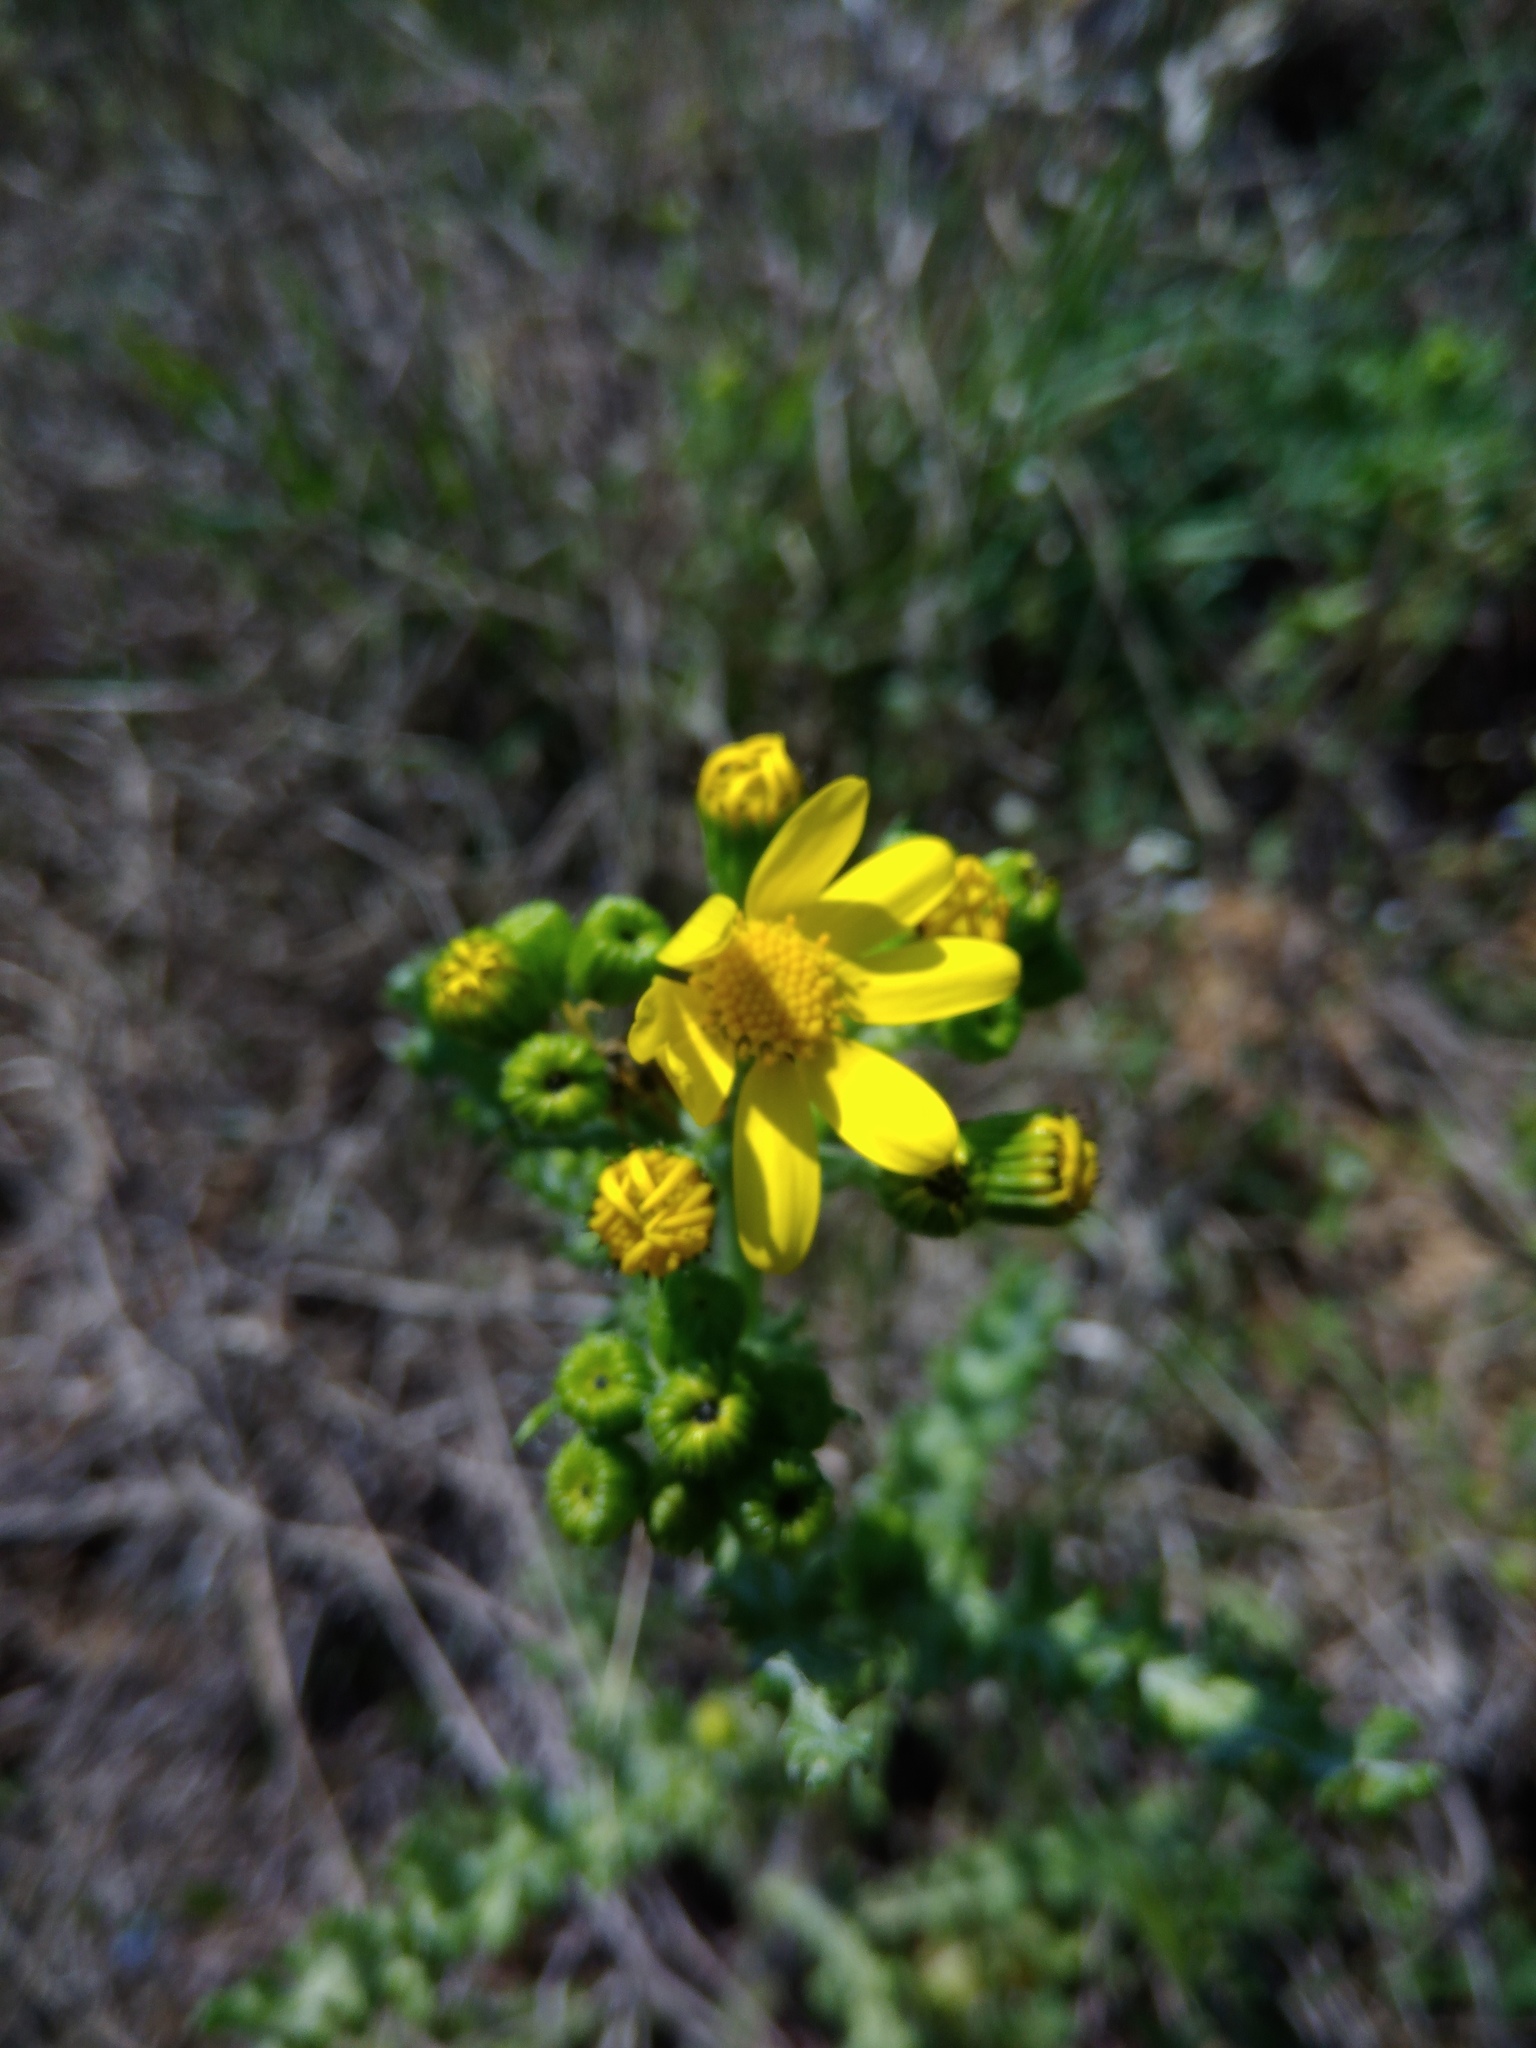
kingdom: Plantae
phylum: Tracheophyta
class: Magnoliopsida
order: Asterales
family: Asteraceae
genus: Senecio
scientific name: Senecio vernalis
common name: Eastern groundsel
